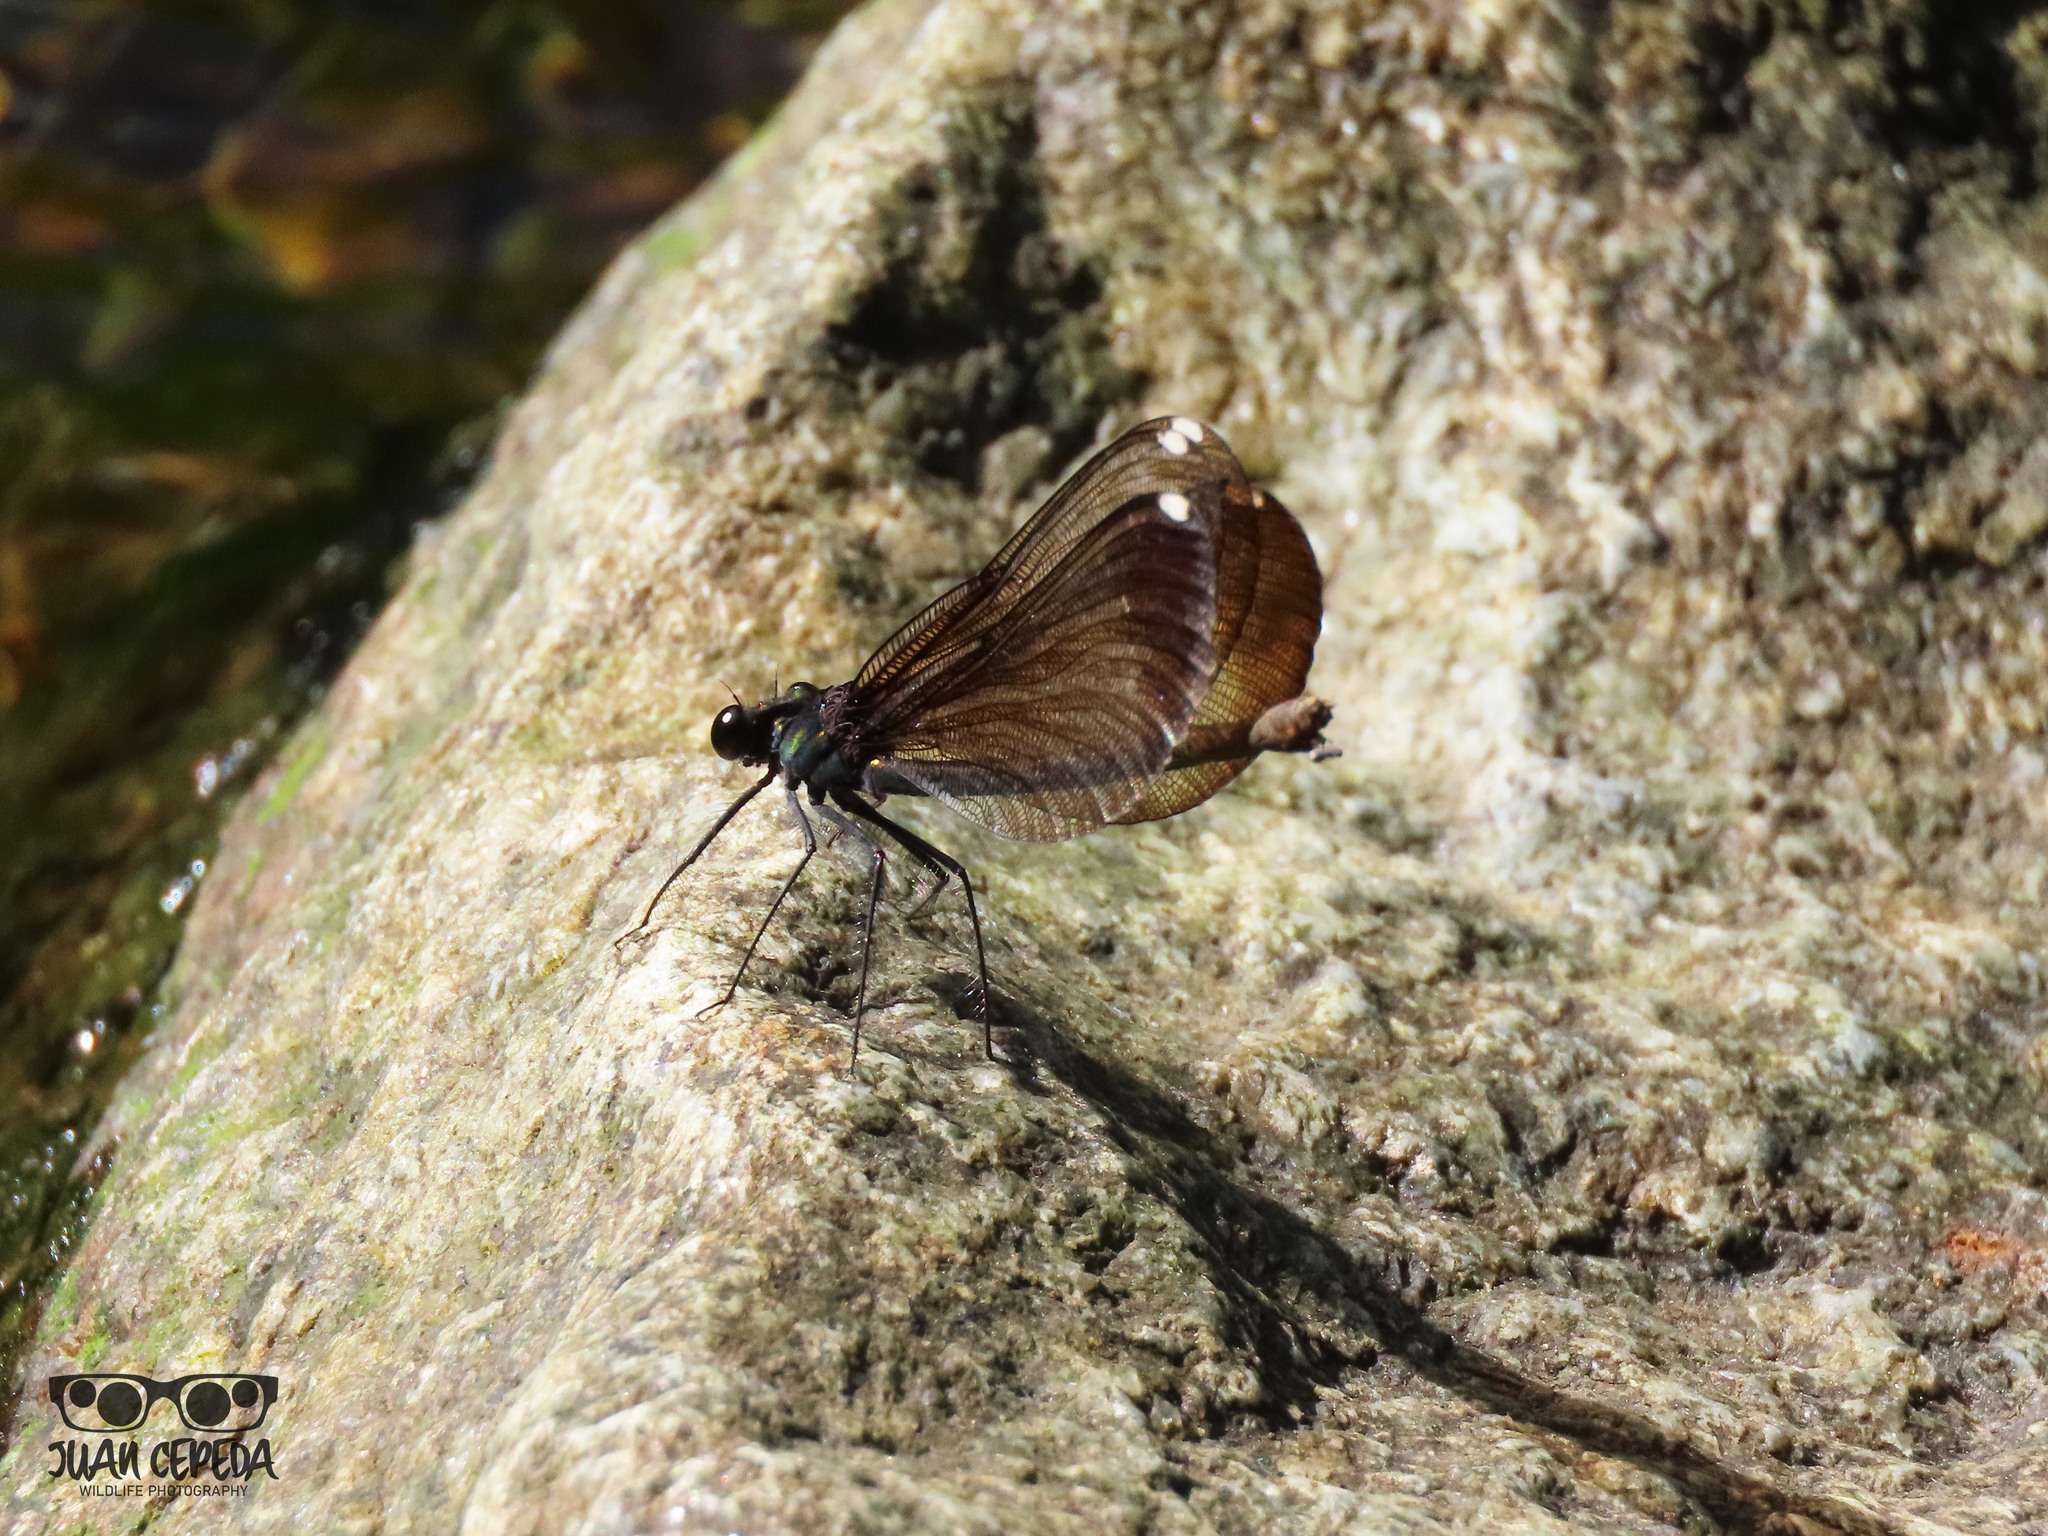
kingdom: Animalia
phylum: Arthropoda
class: Insecta
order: Odonata
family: Calopterygidae
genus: Calopteryx
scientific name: Calopteryx maculata
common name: Ebony jewelwing
